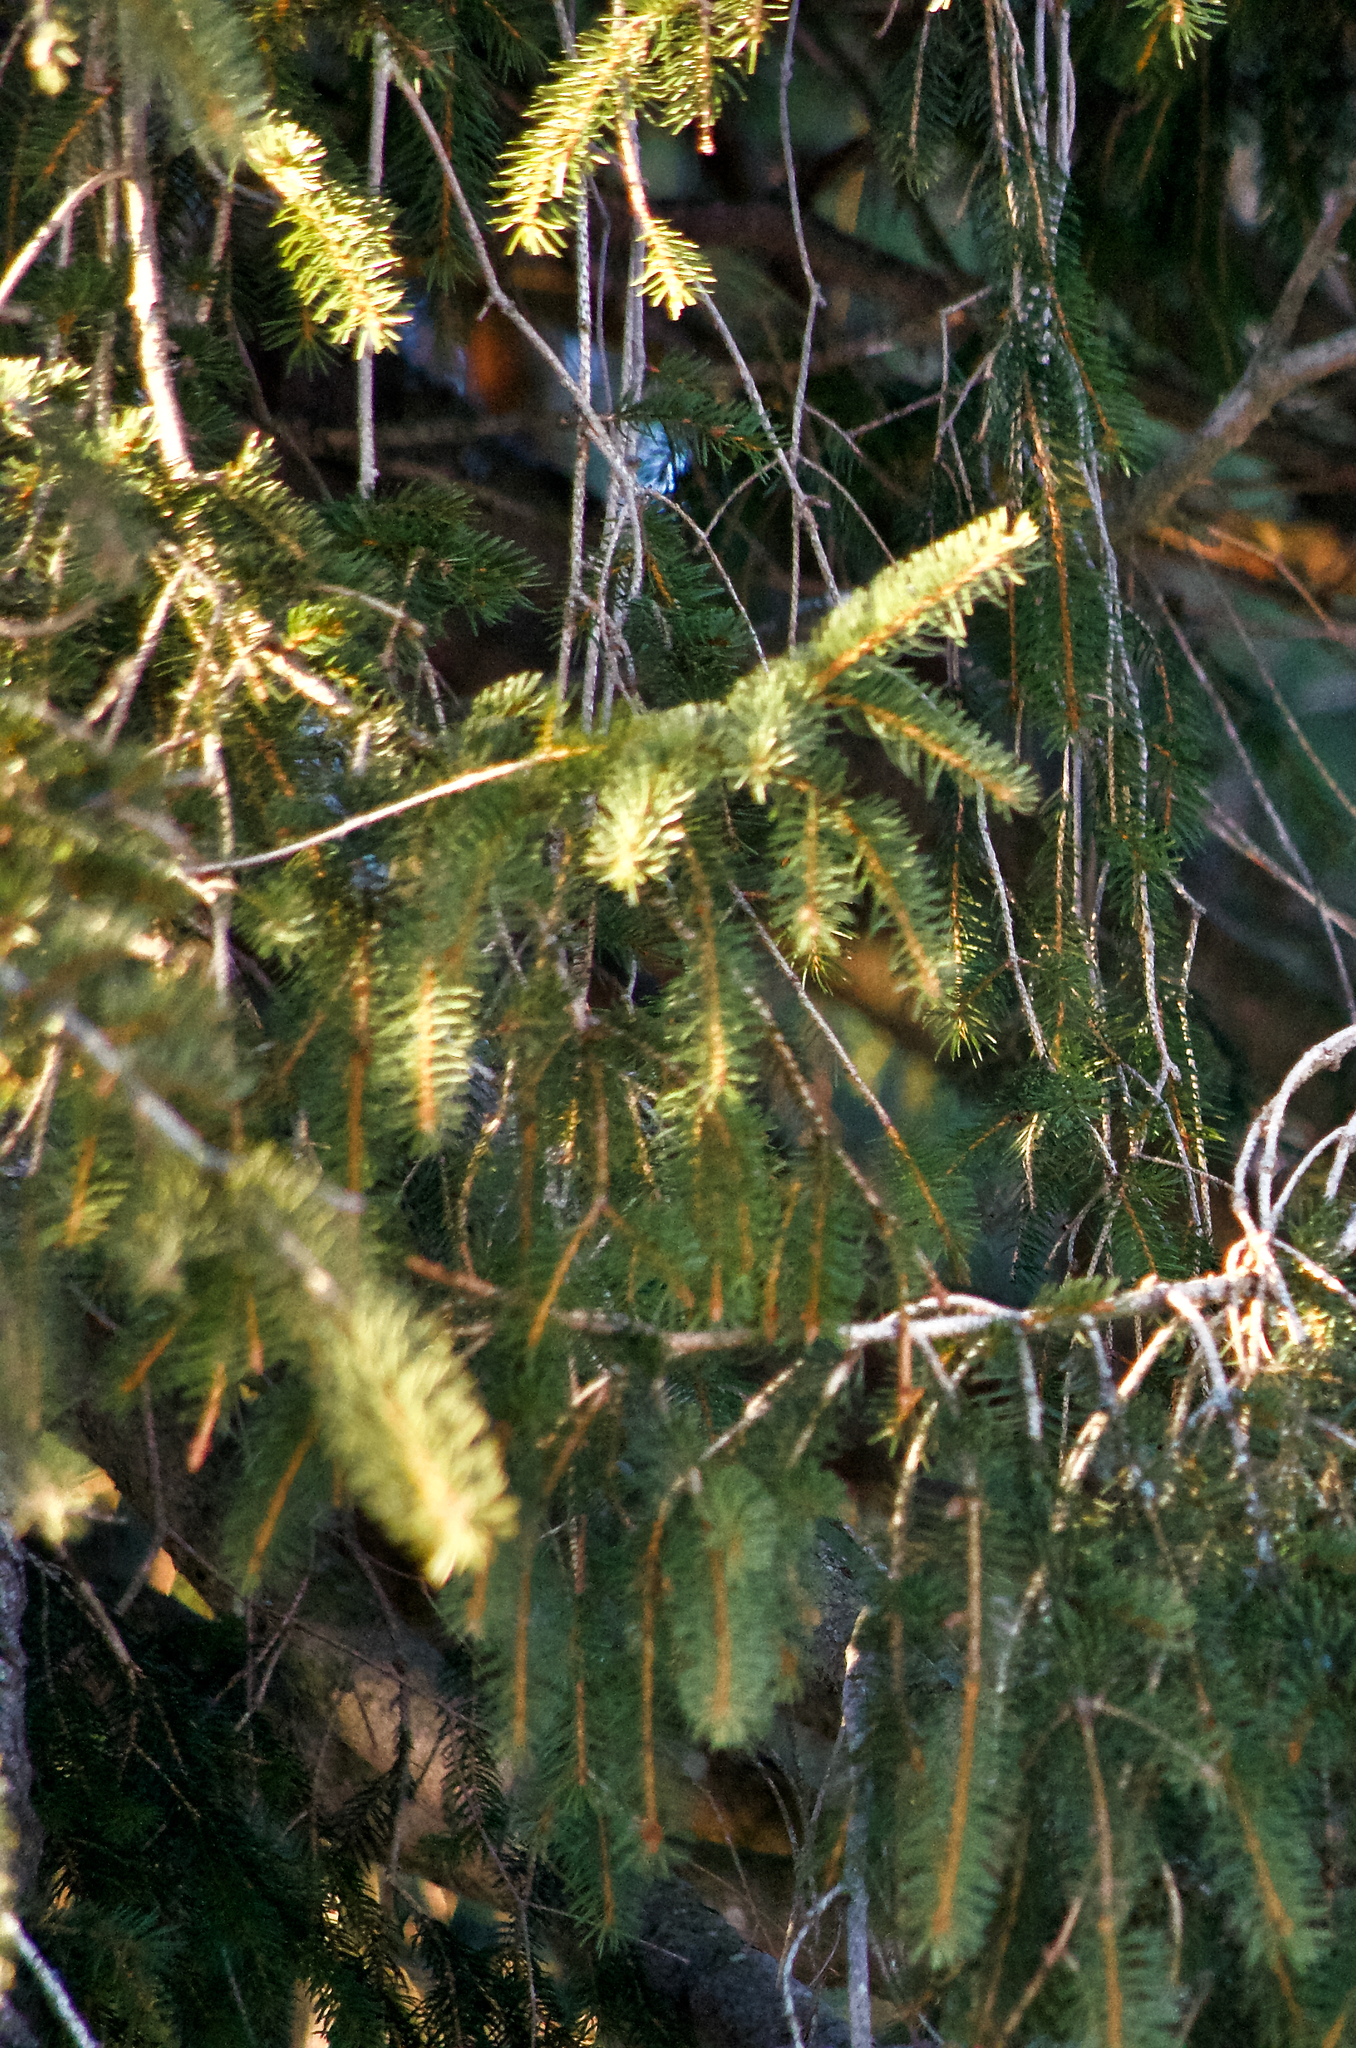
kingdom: Plantae
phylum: Tracheophyta
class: Pinopsida
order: Pinales
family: Pinaceae
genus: Picea
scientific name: Picea abies
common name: Norway spruce
